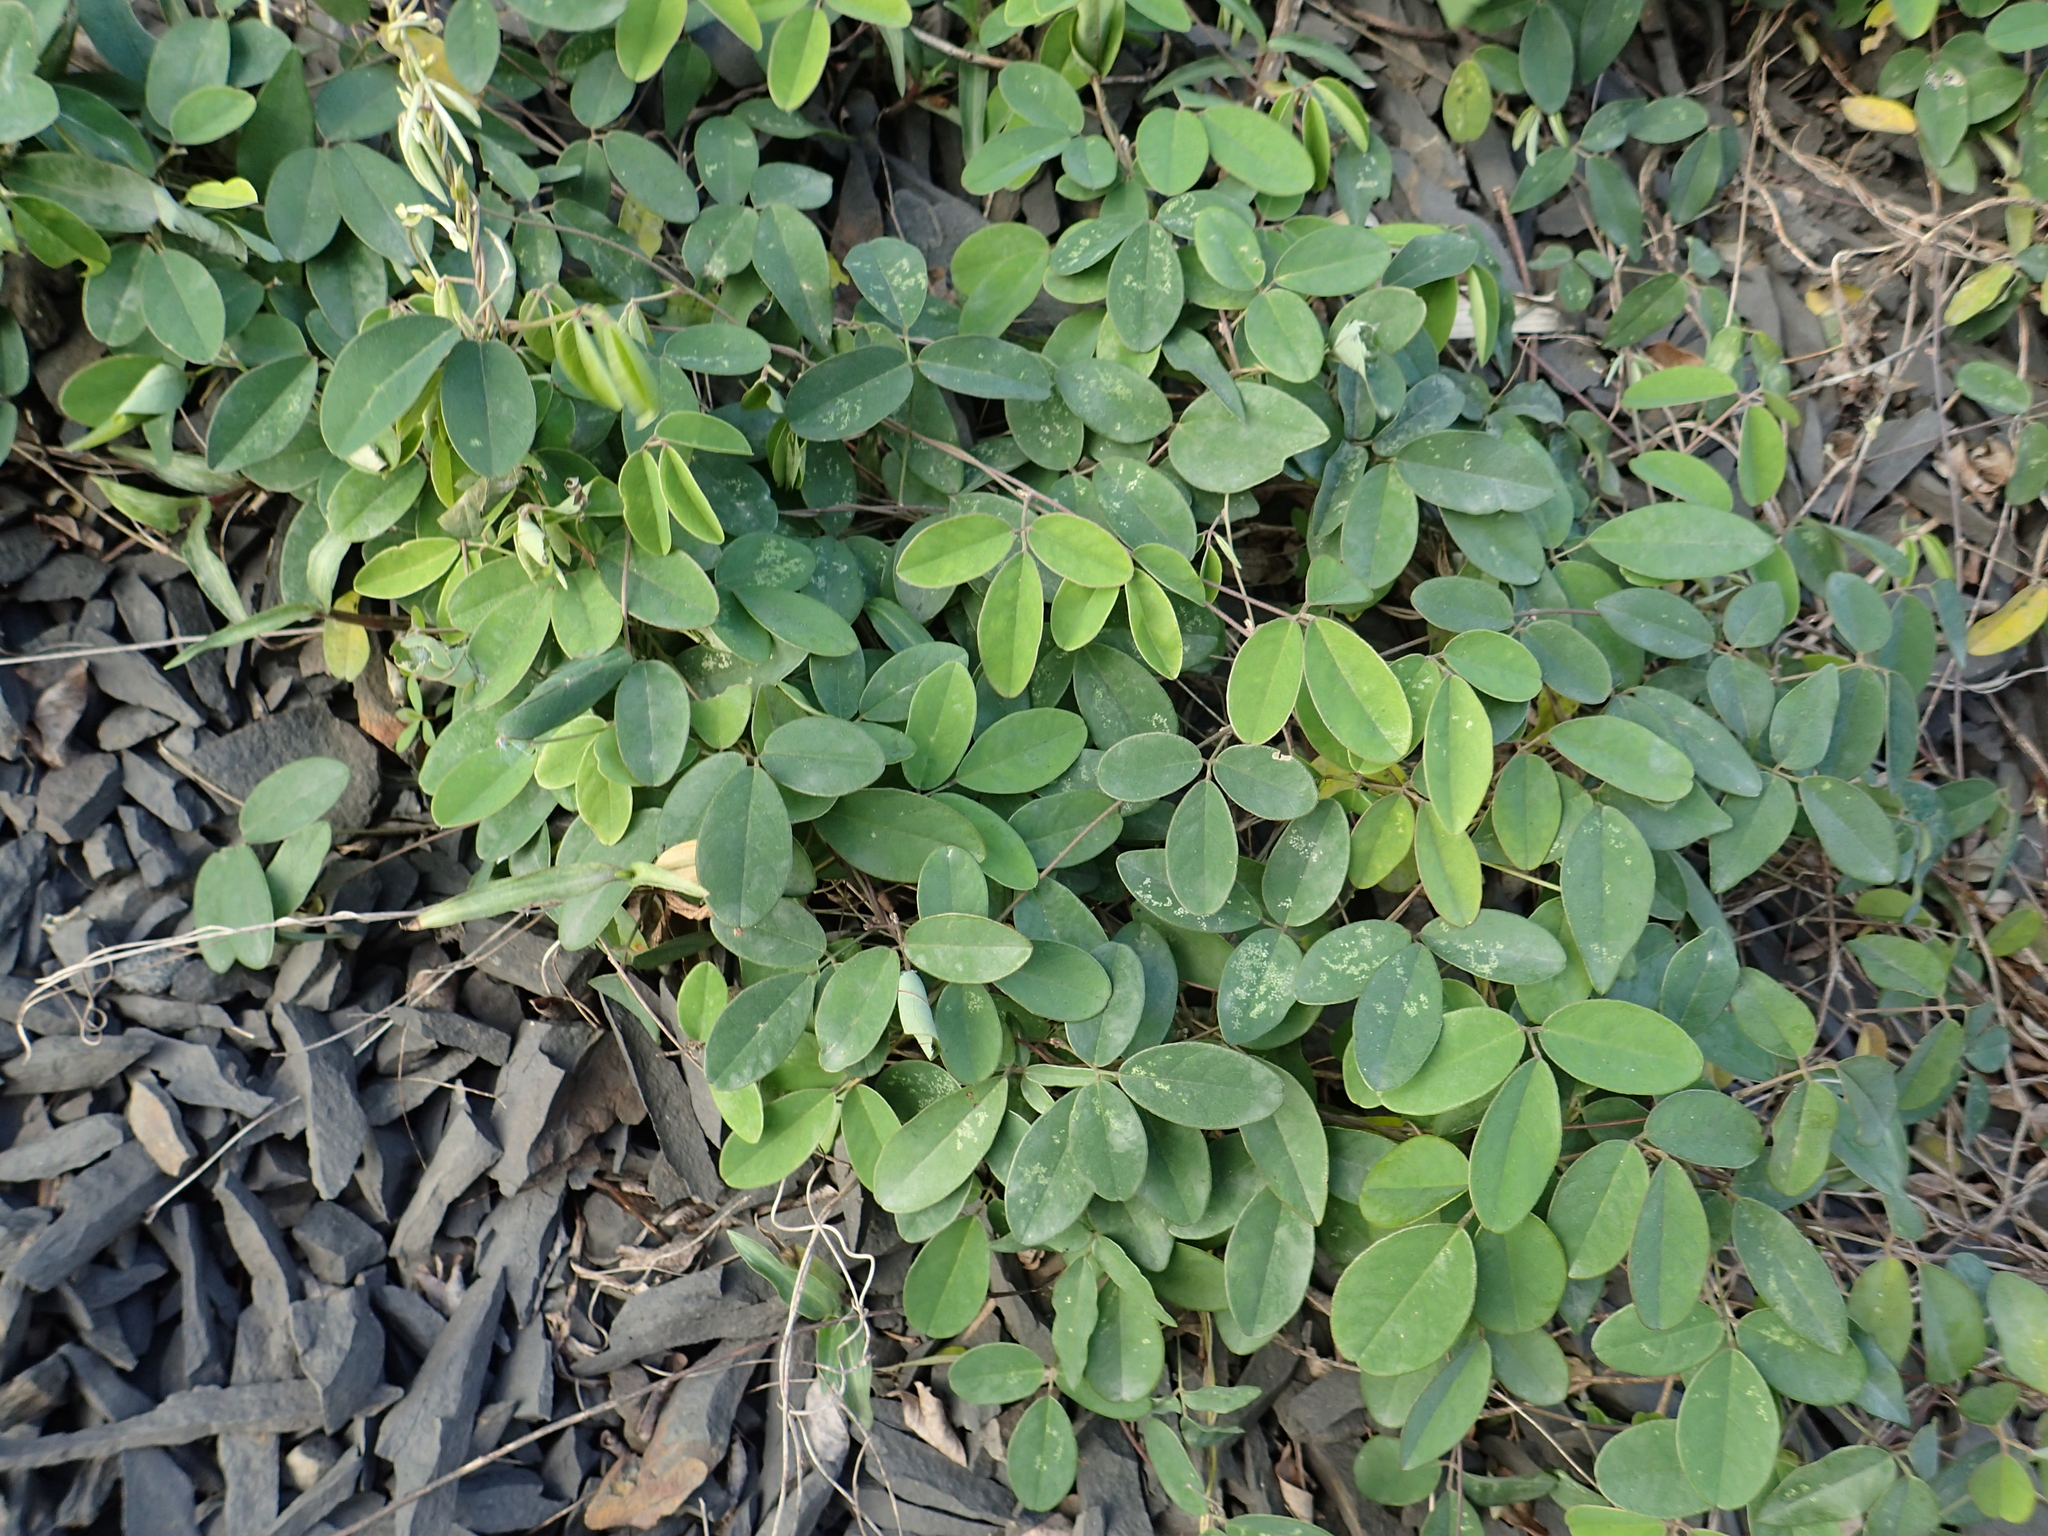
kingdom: Plantae
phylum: Tracheophyta
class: Magnoliopsida
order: Fabales
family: Fabaceae
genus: Galactia
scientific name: Galactia tashiroi
